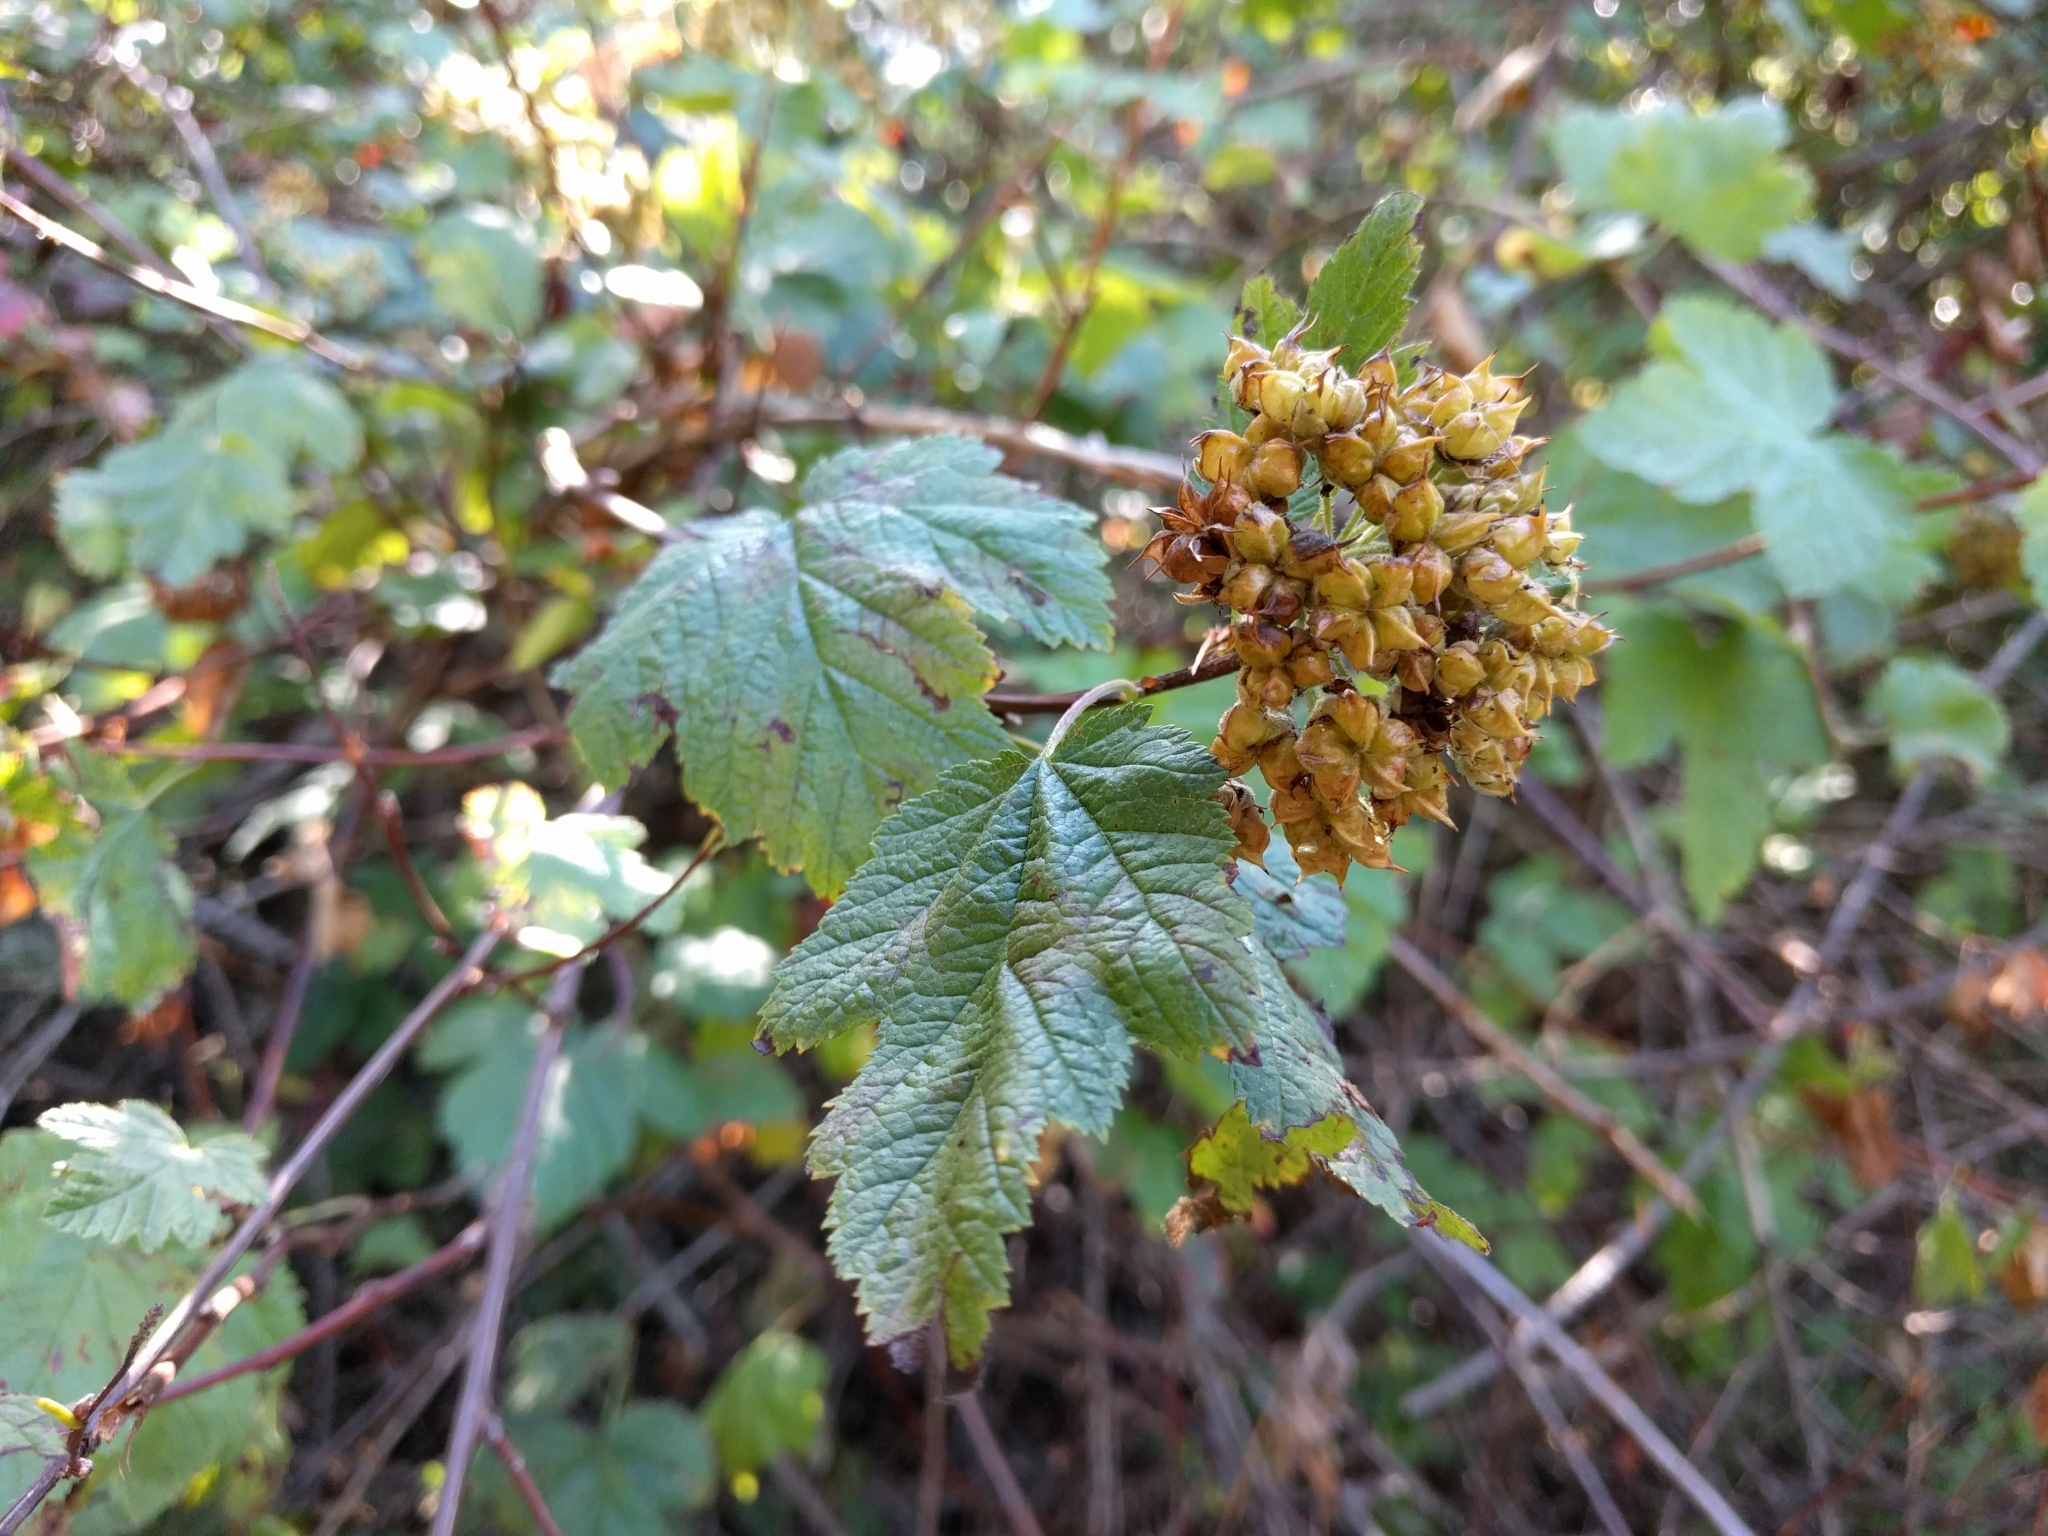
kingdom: Plantae
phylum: Tracheophyta
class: Magnoliopsida
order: Rosales
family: Rosaceae
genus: Physocarpus
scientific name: Physocarpus capitatus
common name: Pacific ninebark
